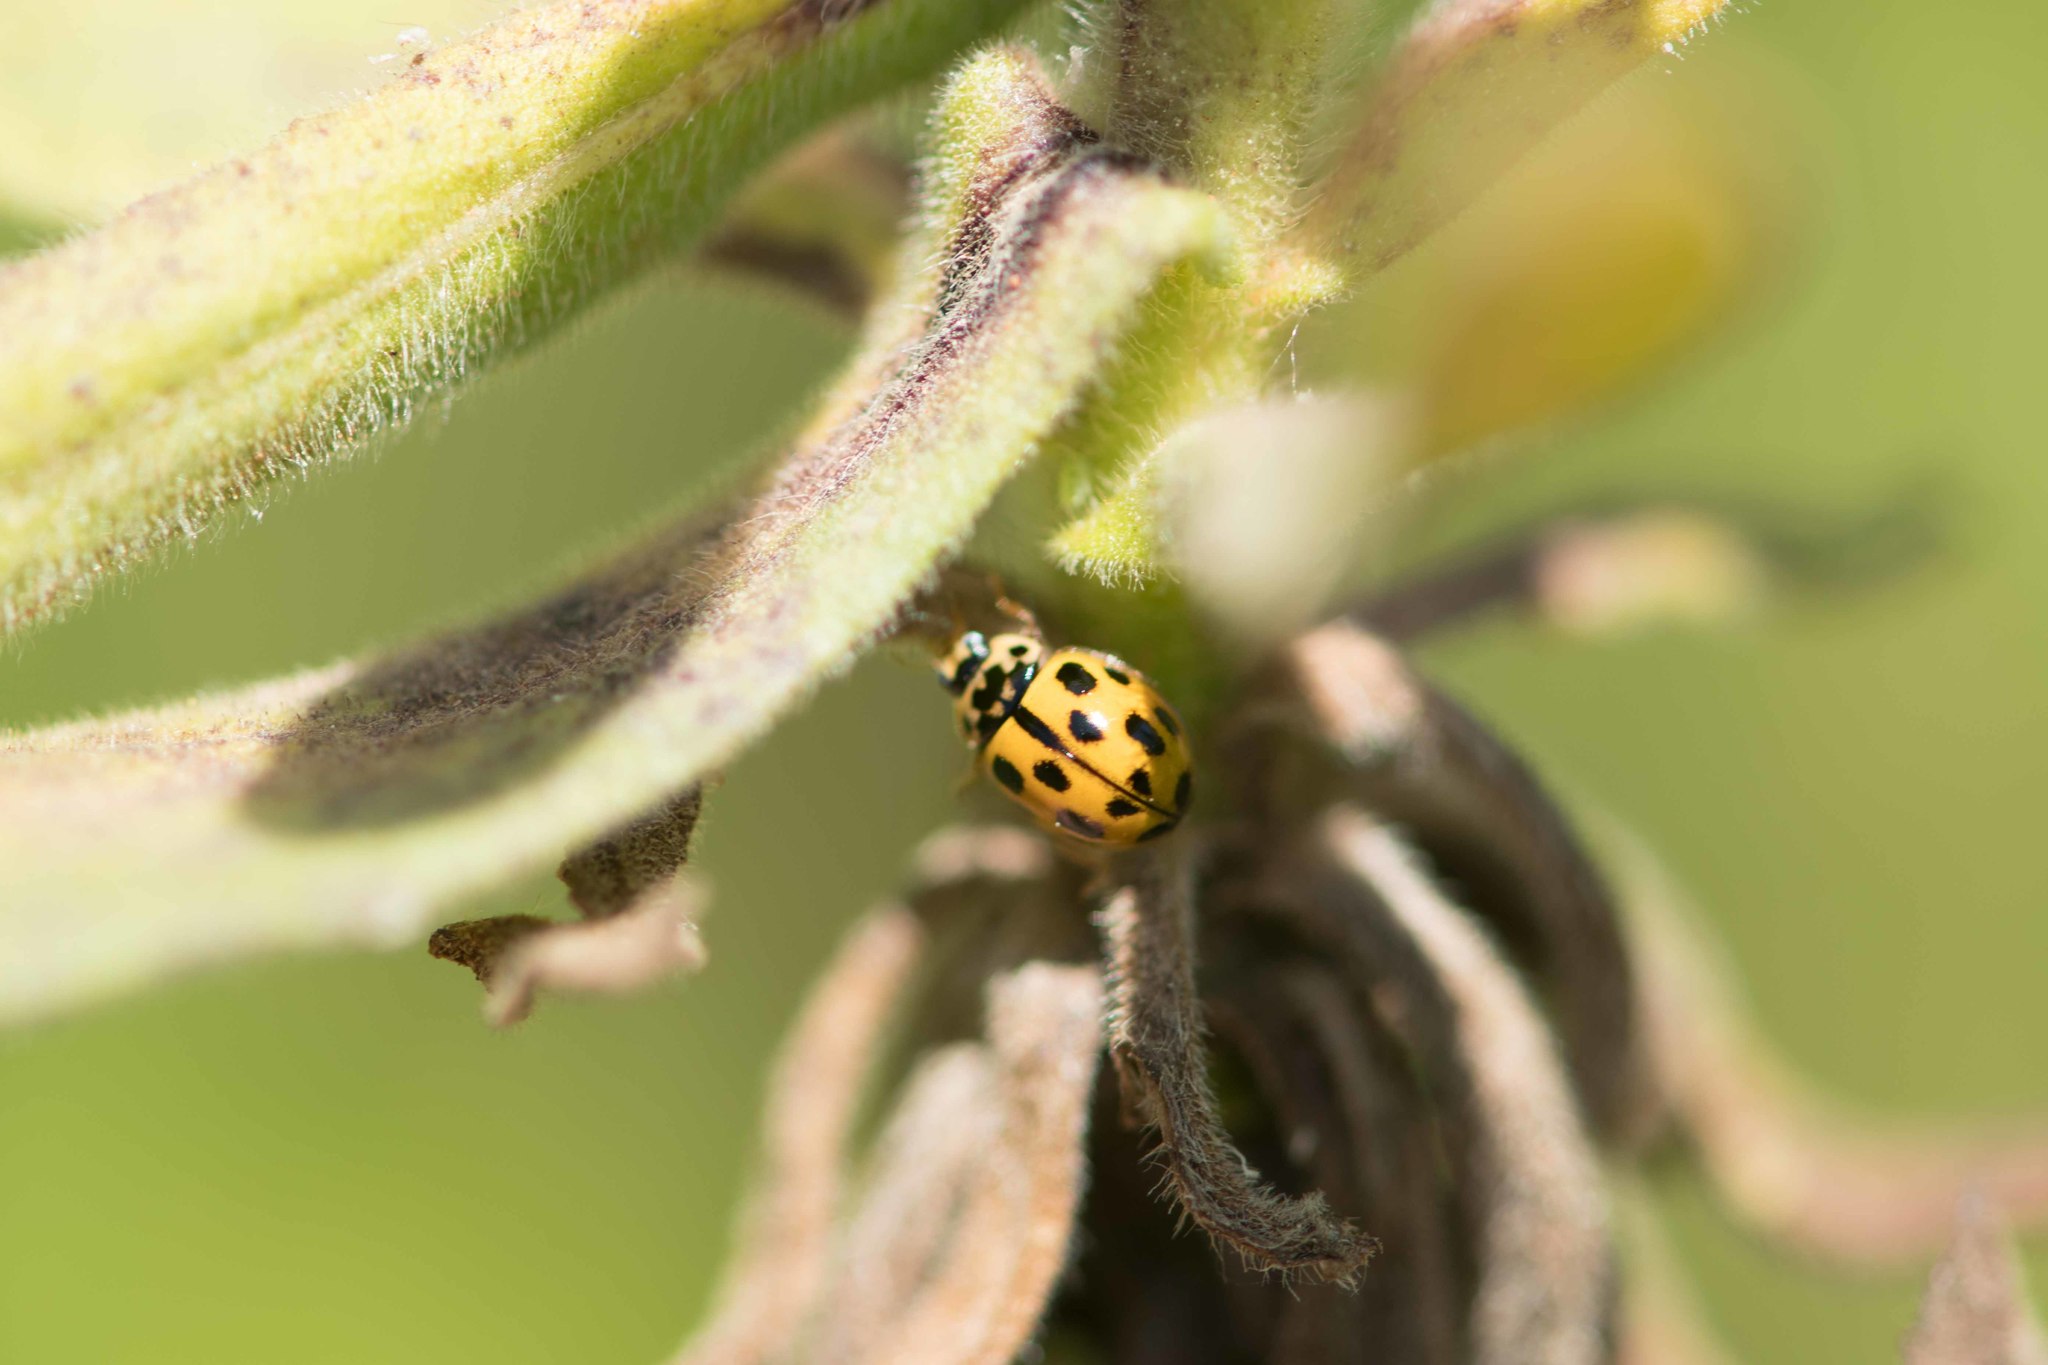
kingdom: Animalia
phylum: Arthropoda
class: Insecta
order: Coleoptera
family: Coccinellidae
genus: Propylaea
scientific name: Propylaea quatuordecimpunctata
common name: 14-spotted ladybird beetle
